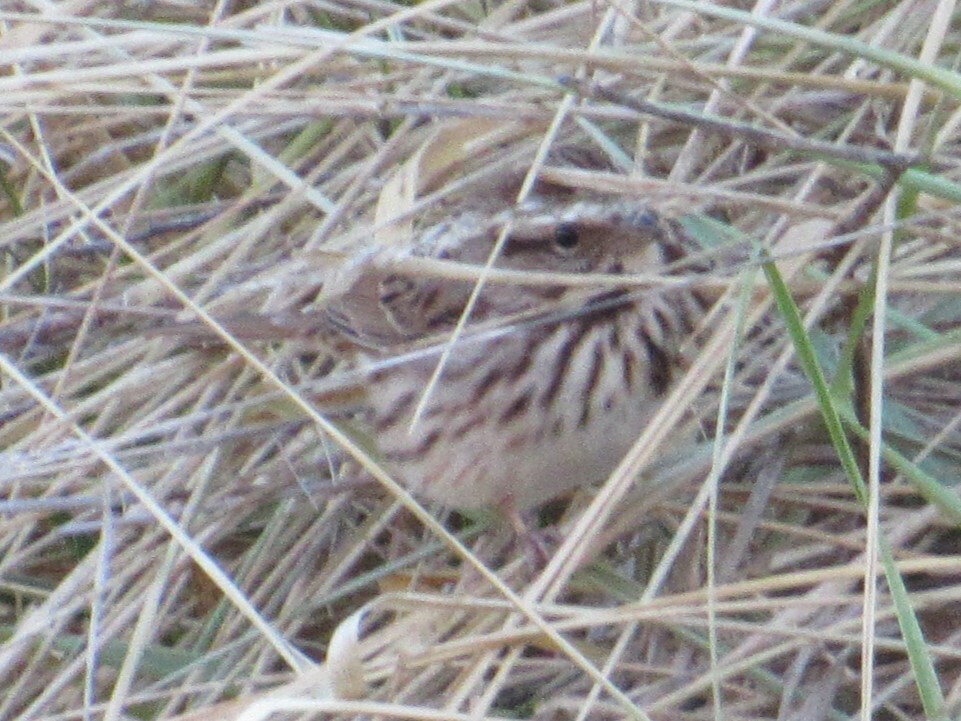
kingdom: Animalia
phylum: Chordata
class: Aves
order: Passeriformes
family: Passerellidae
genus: Melospiza
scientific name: Melospiza melodia
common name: Song sparrow
